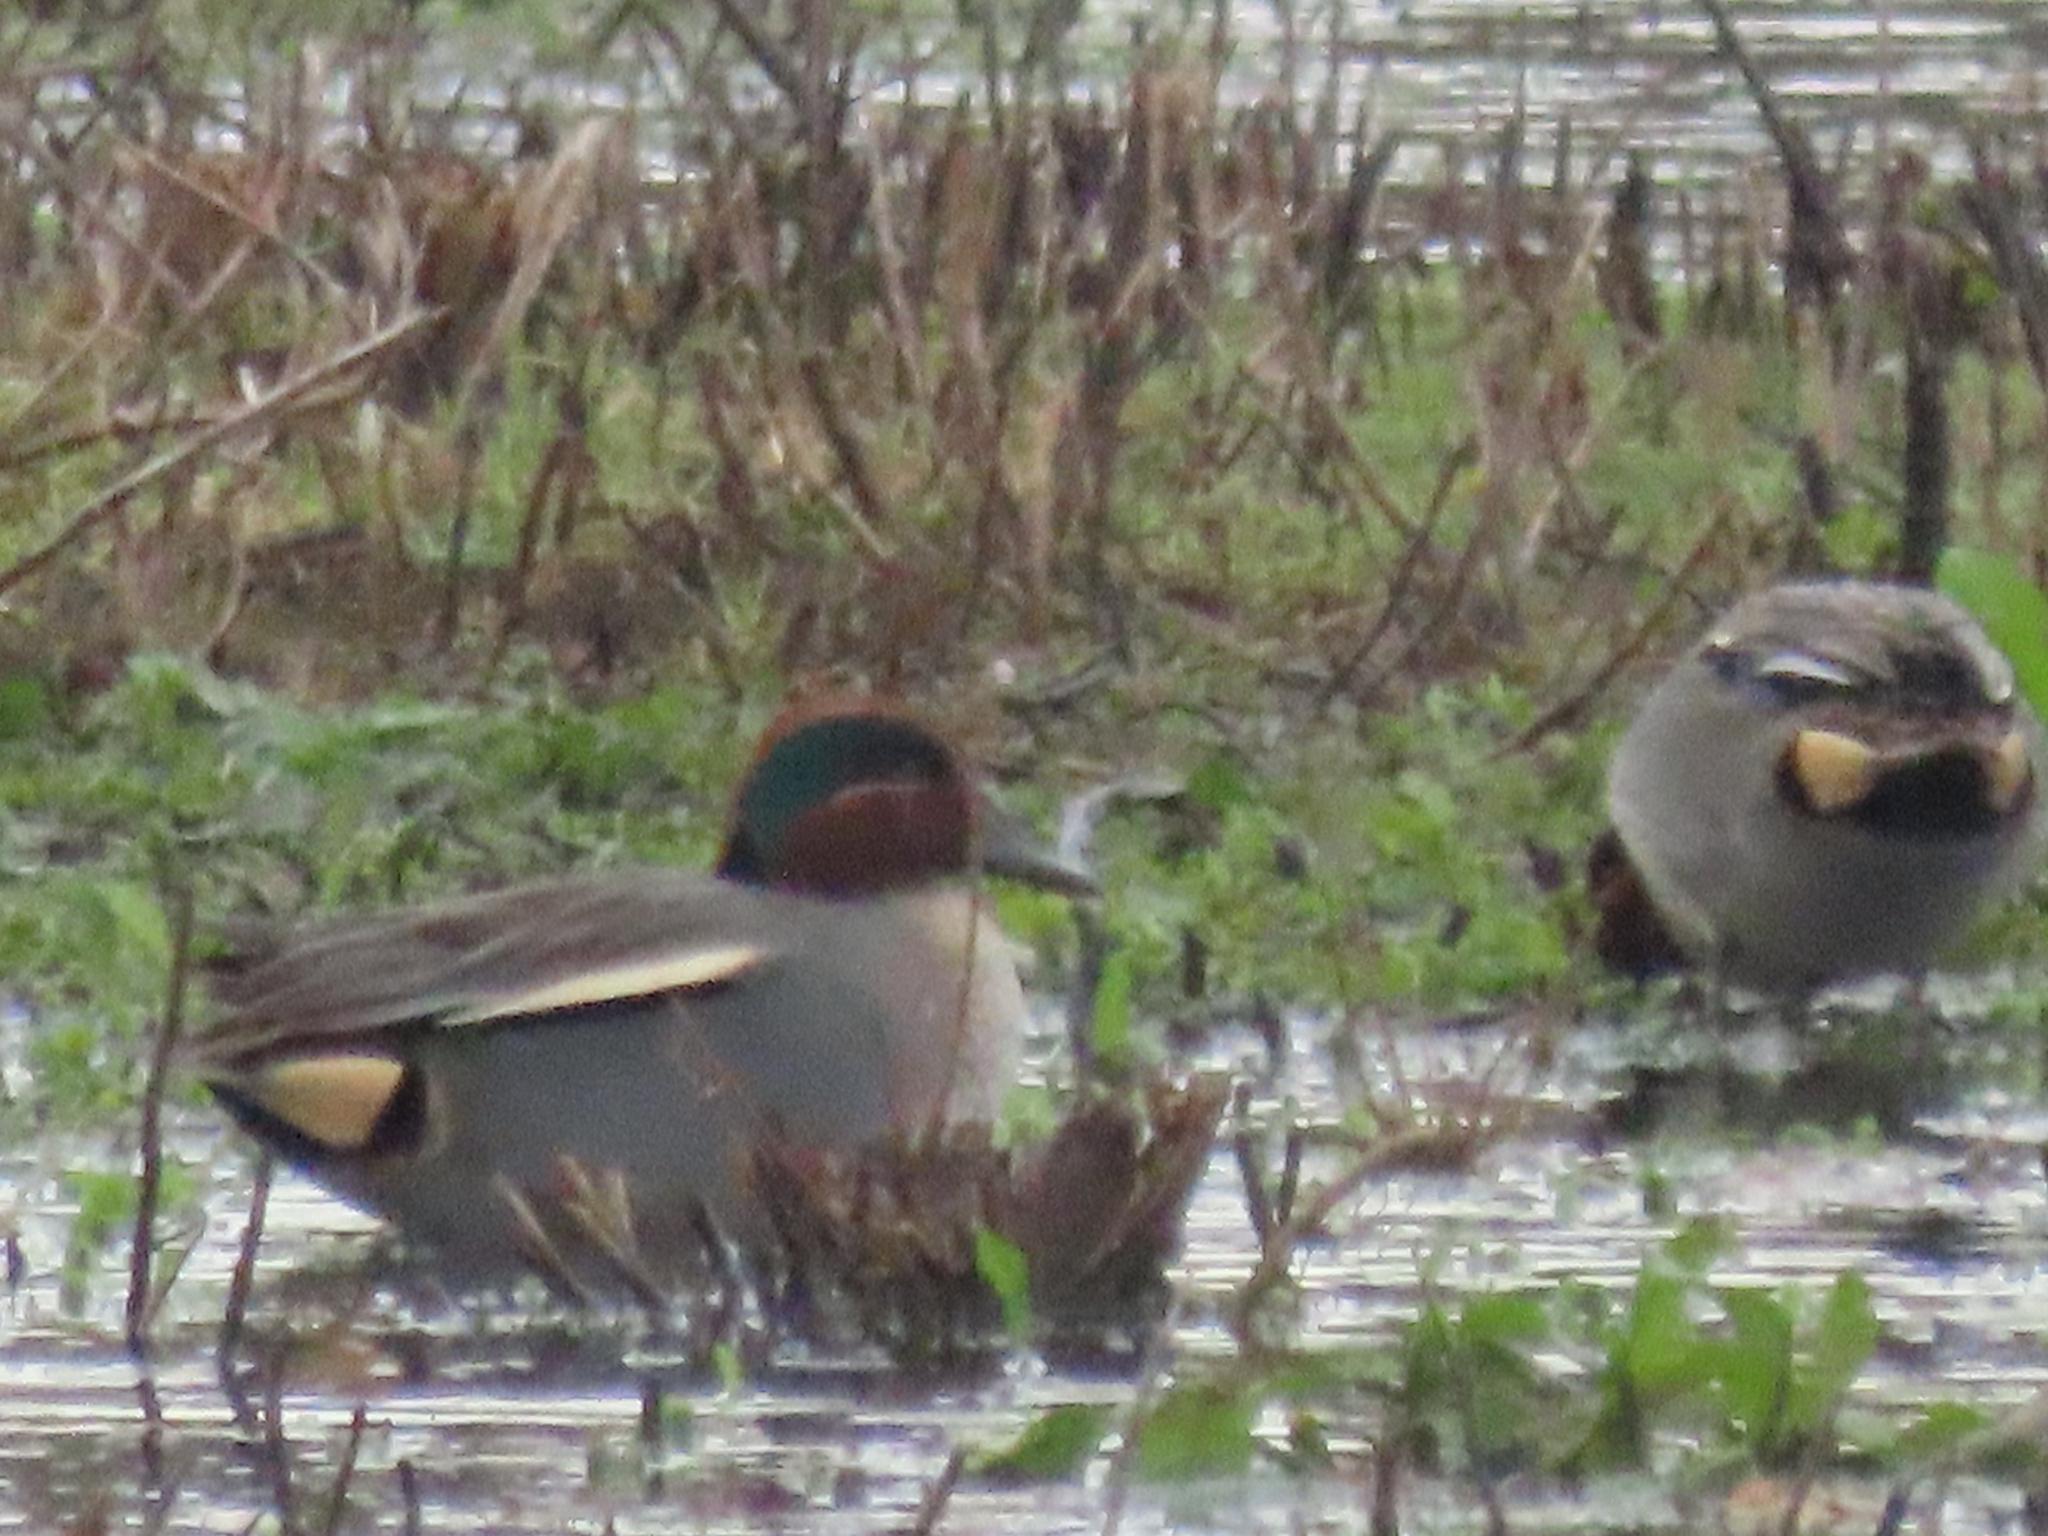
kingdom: Animalia
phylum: Chordata
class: Aves
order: Anseriformes
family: Anatidae
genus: Anas
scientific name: Anas crecca
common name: Eurasian teal
